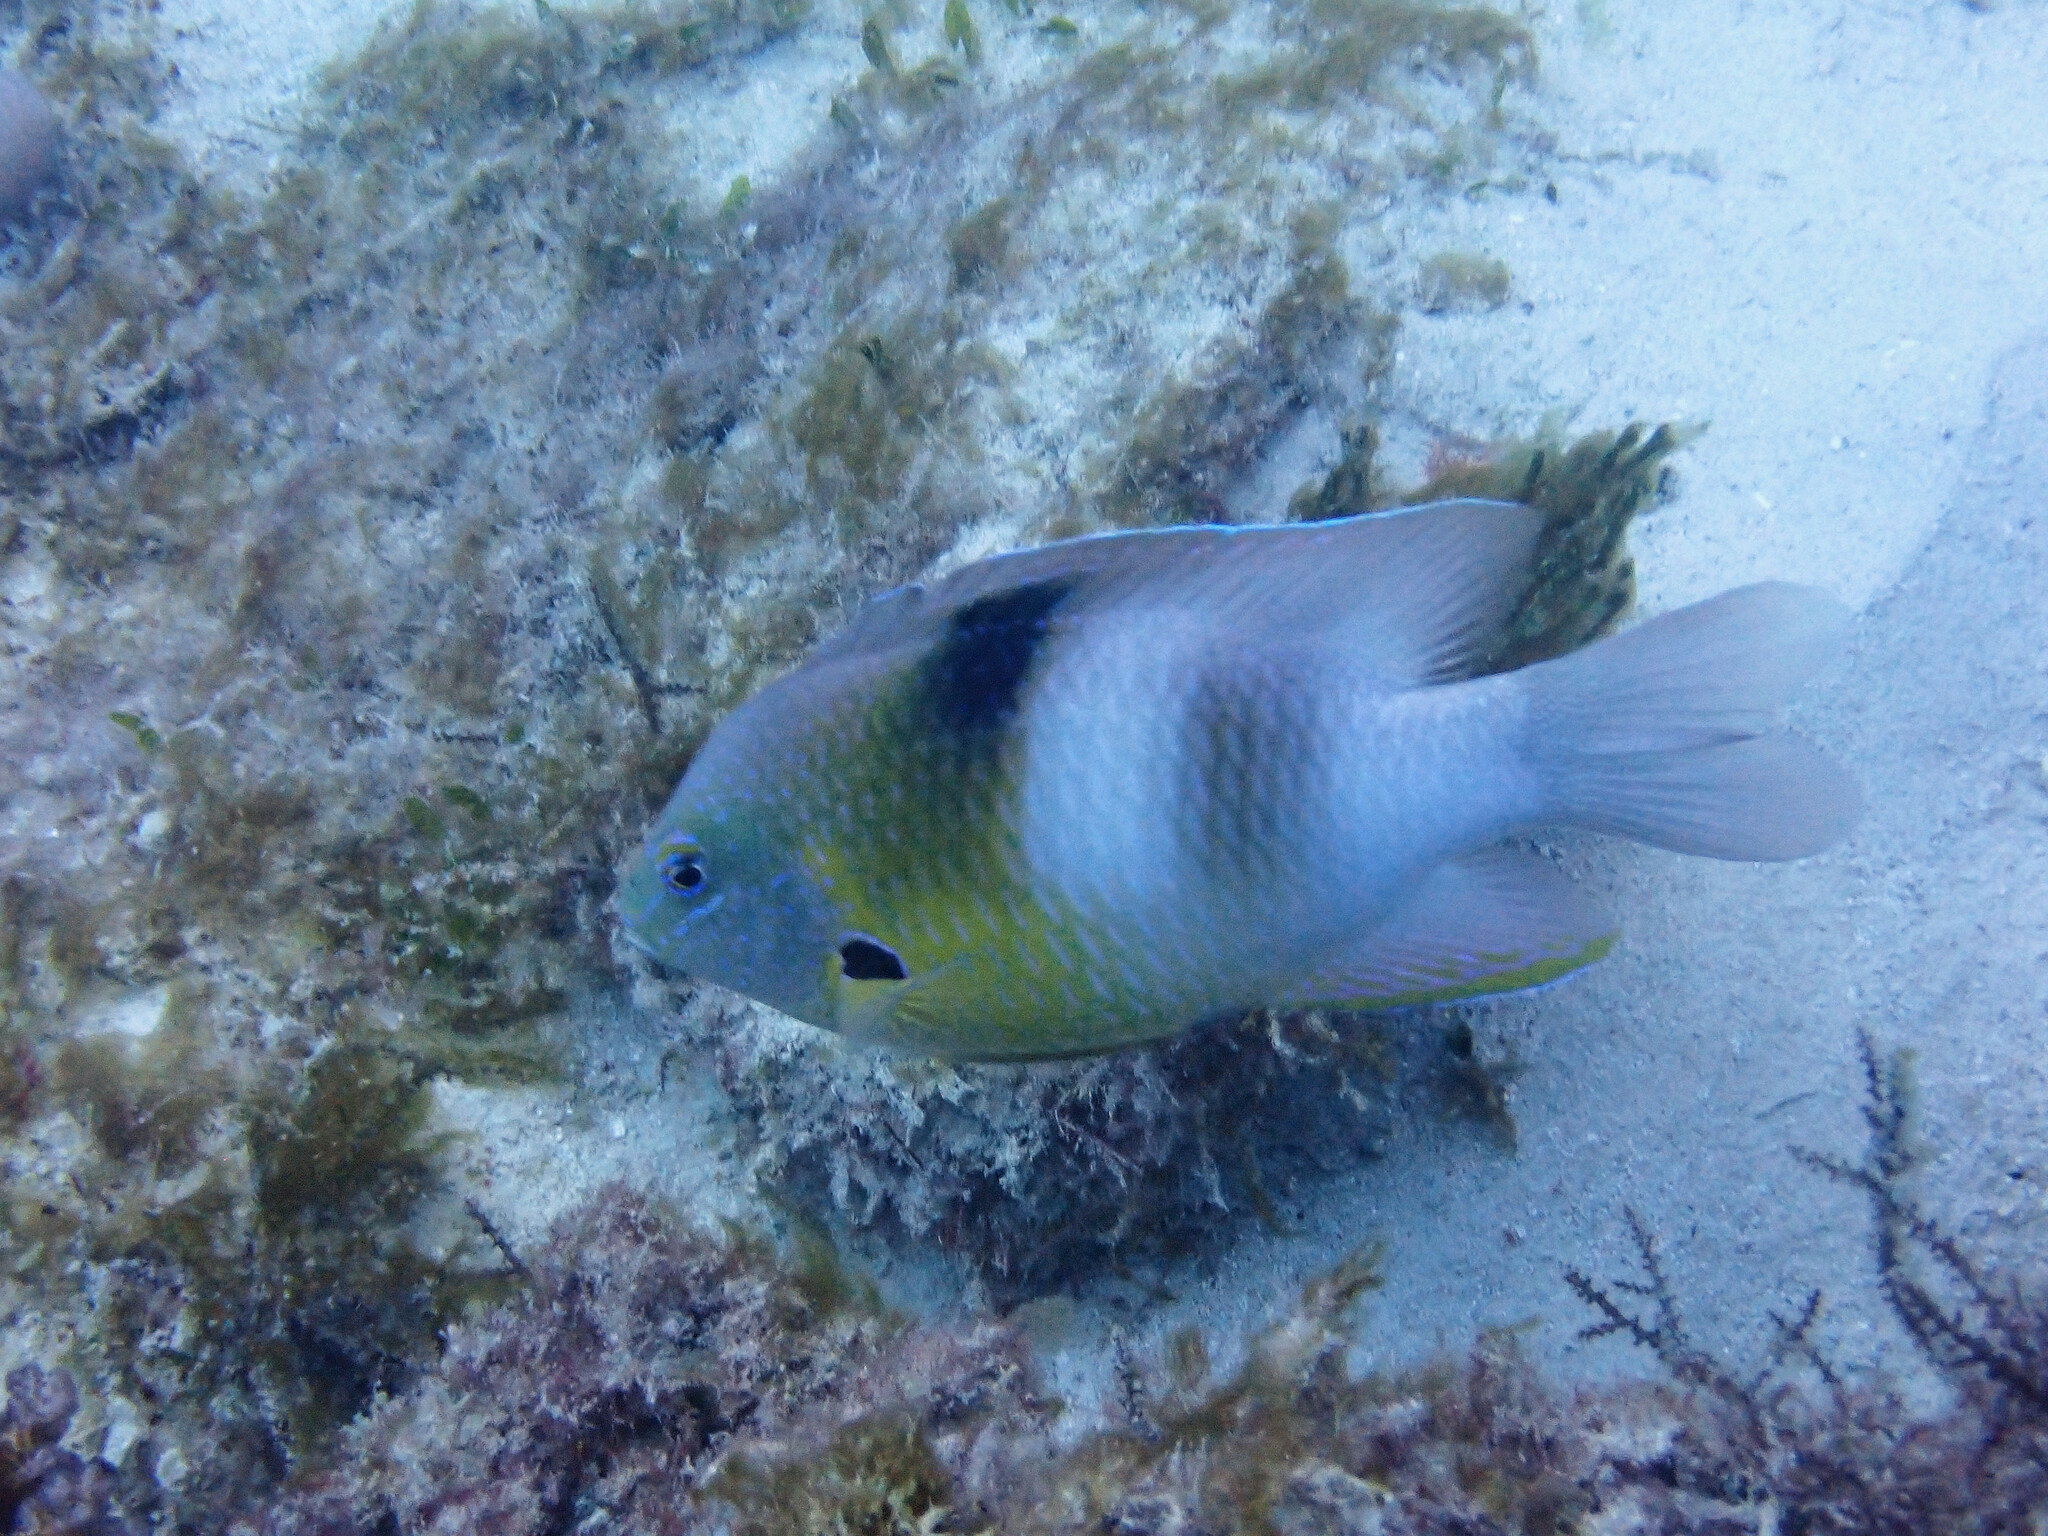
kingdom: Animalia
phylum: Chordata
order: Perciformes
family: Pomacentridae
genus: Dischistodus
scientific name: Dischistodus prosopotaenia
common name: Honey-head damsel
